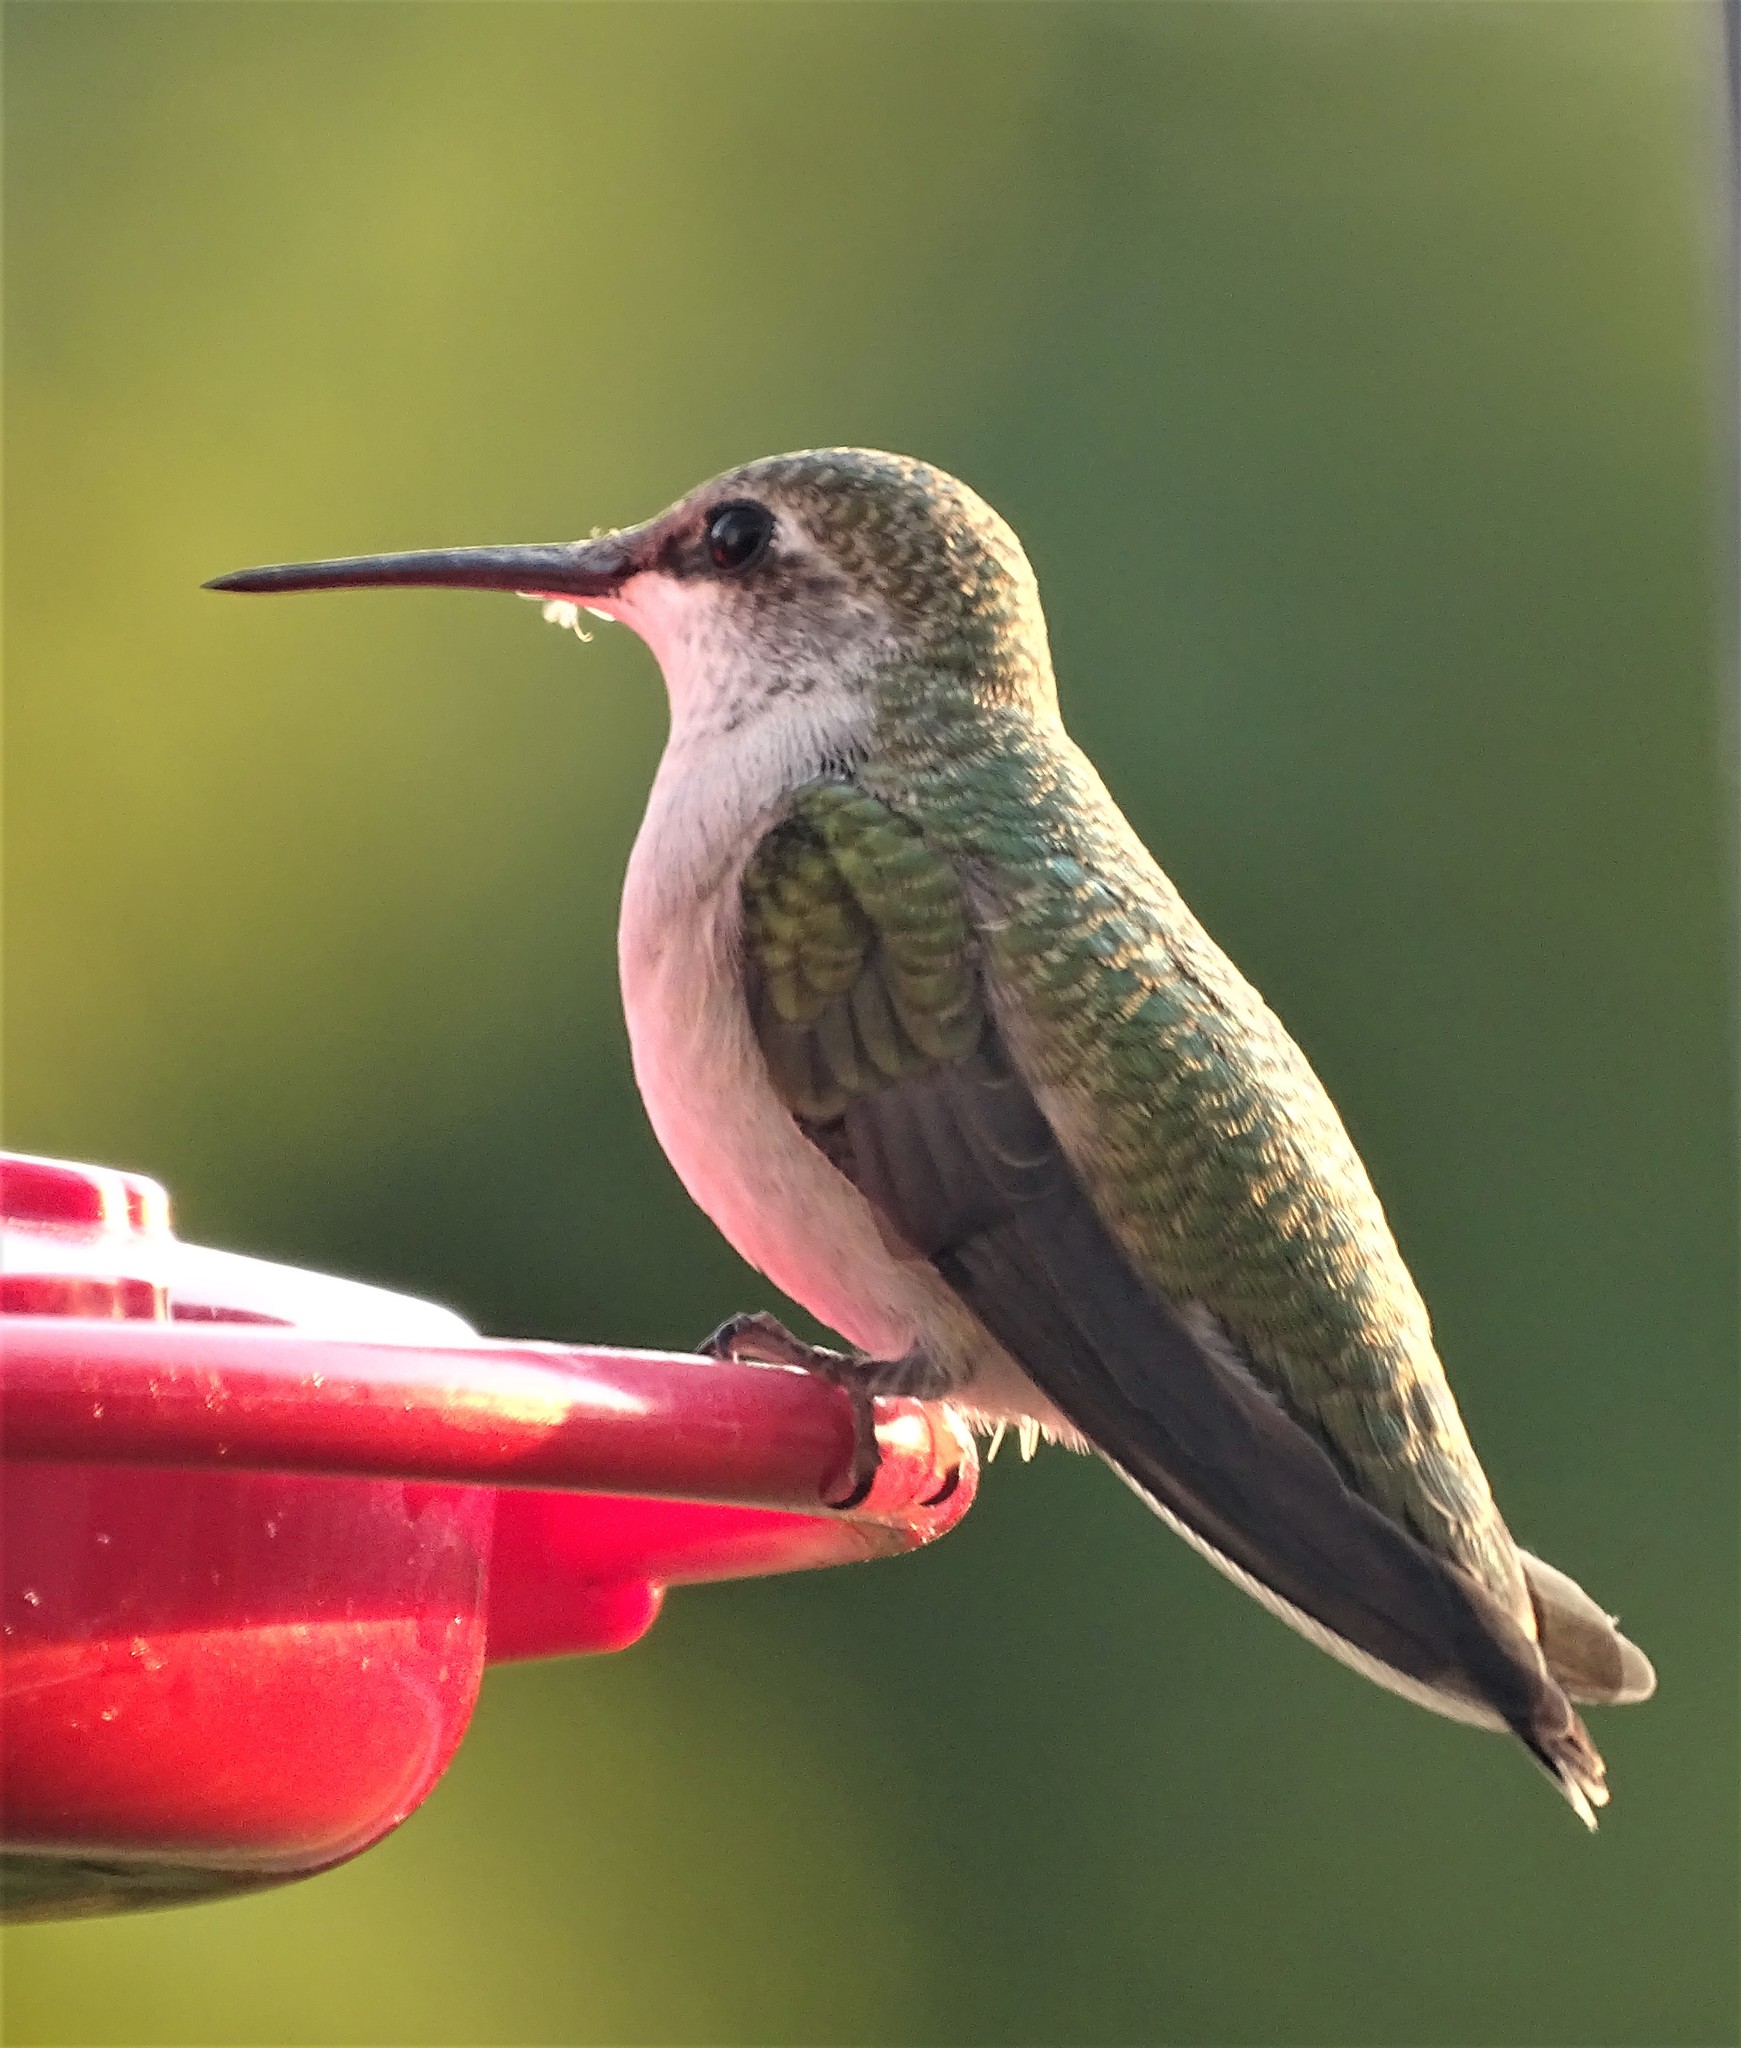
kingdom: Animalia
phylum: Chordata
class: Aves
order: Apodiformes
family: Trochilidae
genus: Archilochus
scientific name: Archilochus colubris
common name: Ruby-throated hummingbird
